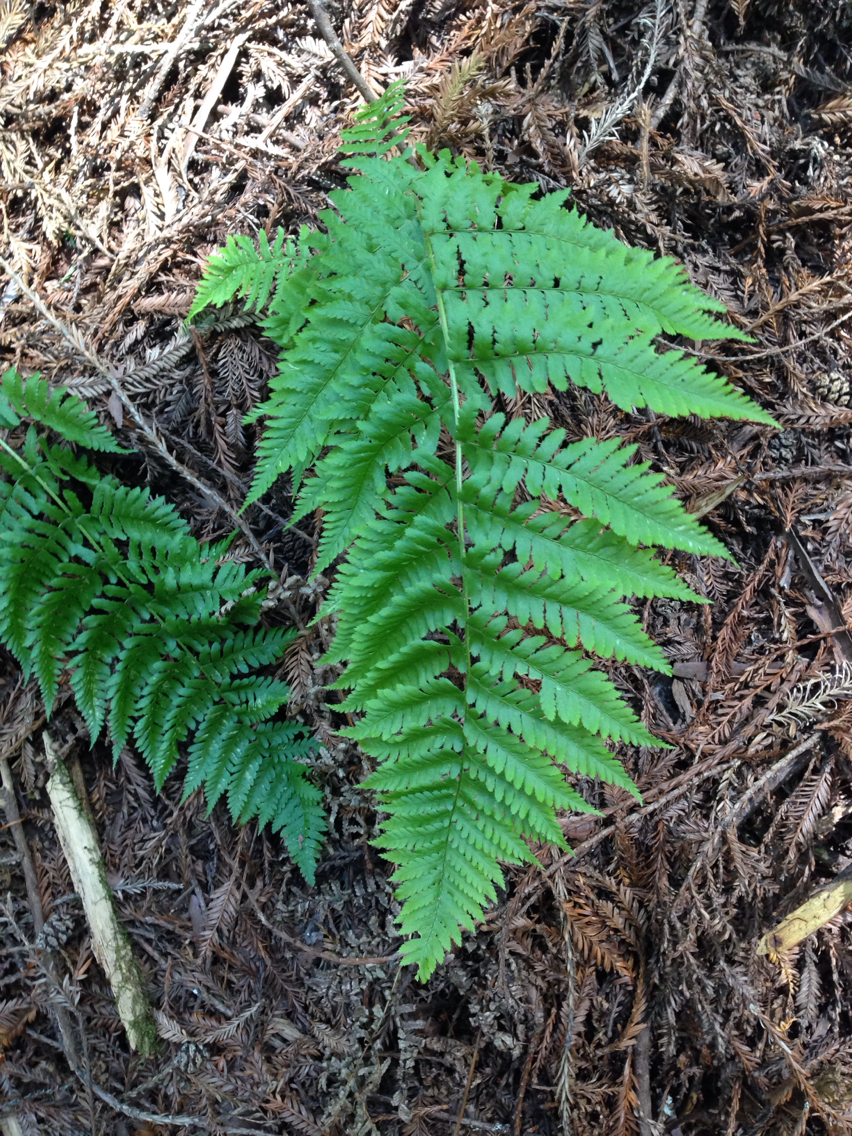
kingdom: Plantae
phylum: Tracheophyta
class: Polypodiopsida
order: Polypodiales
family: Dryopteridaceae
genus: Dryopteris
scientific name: Dryopteris arguta
